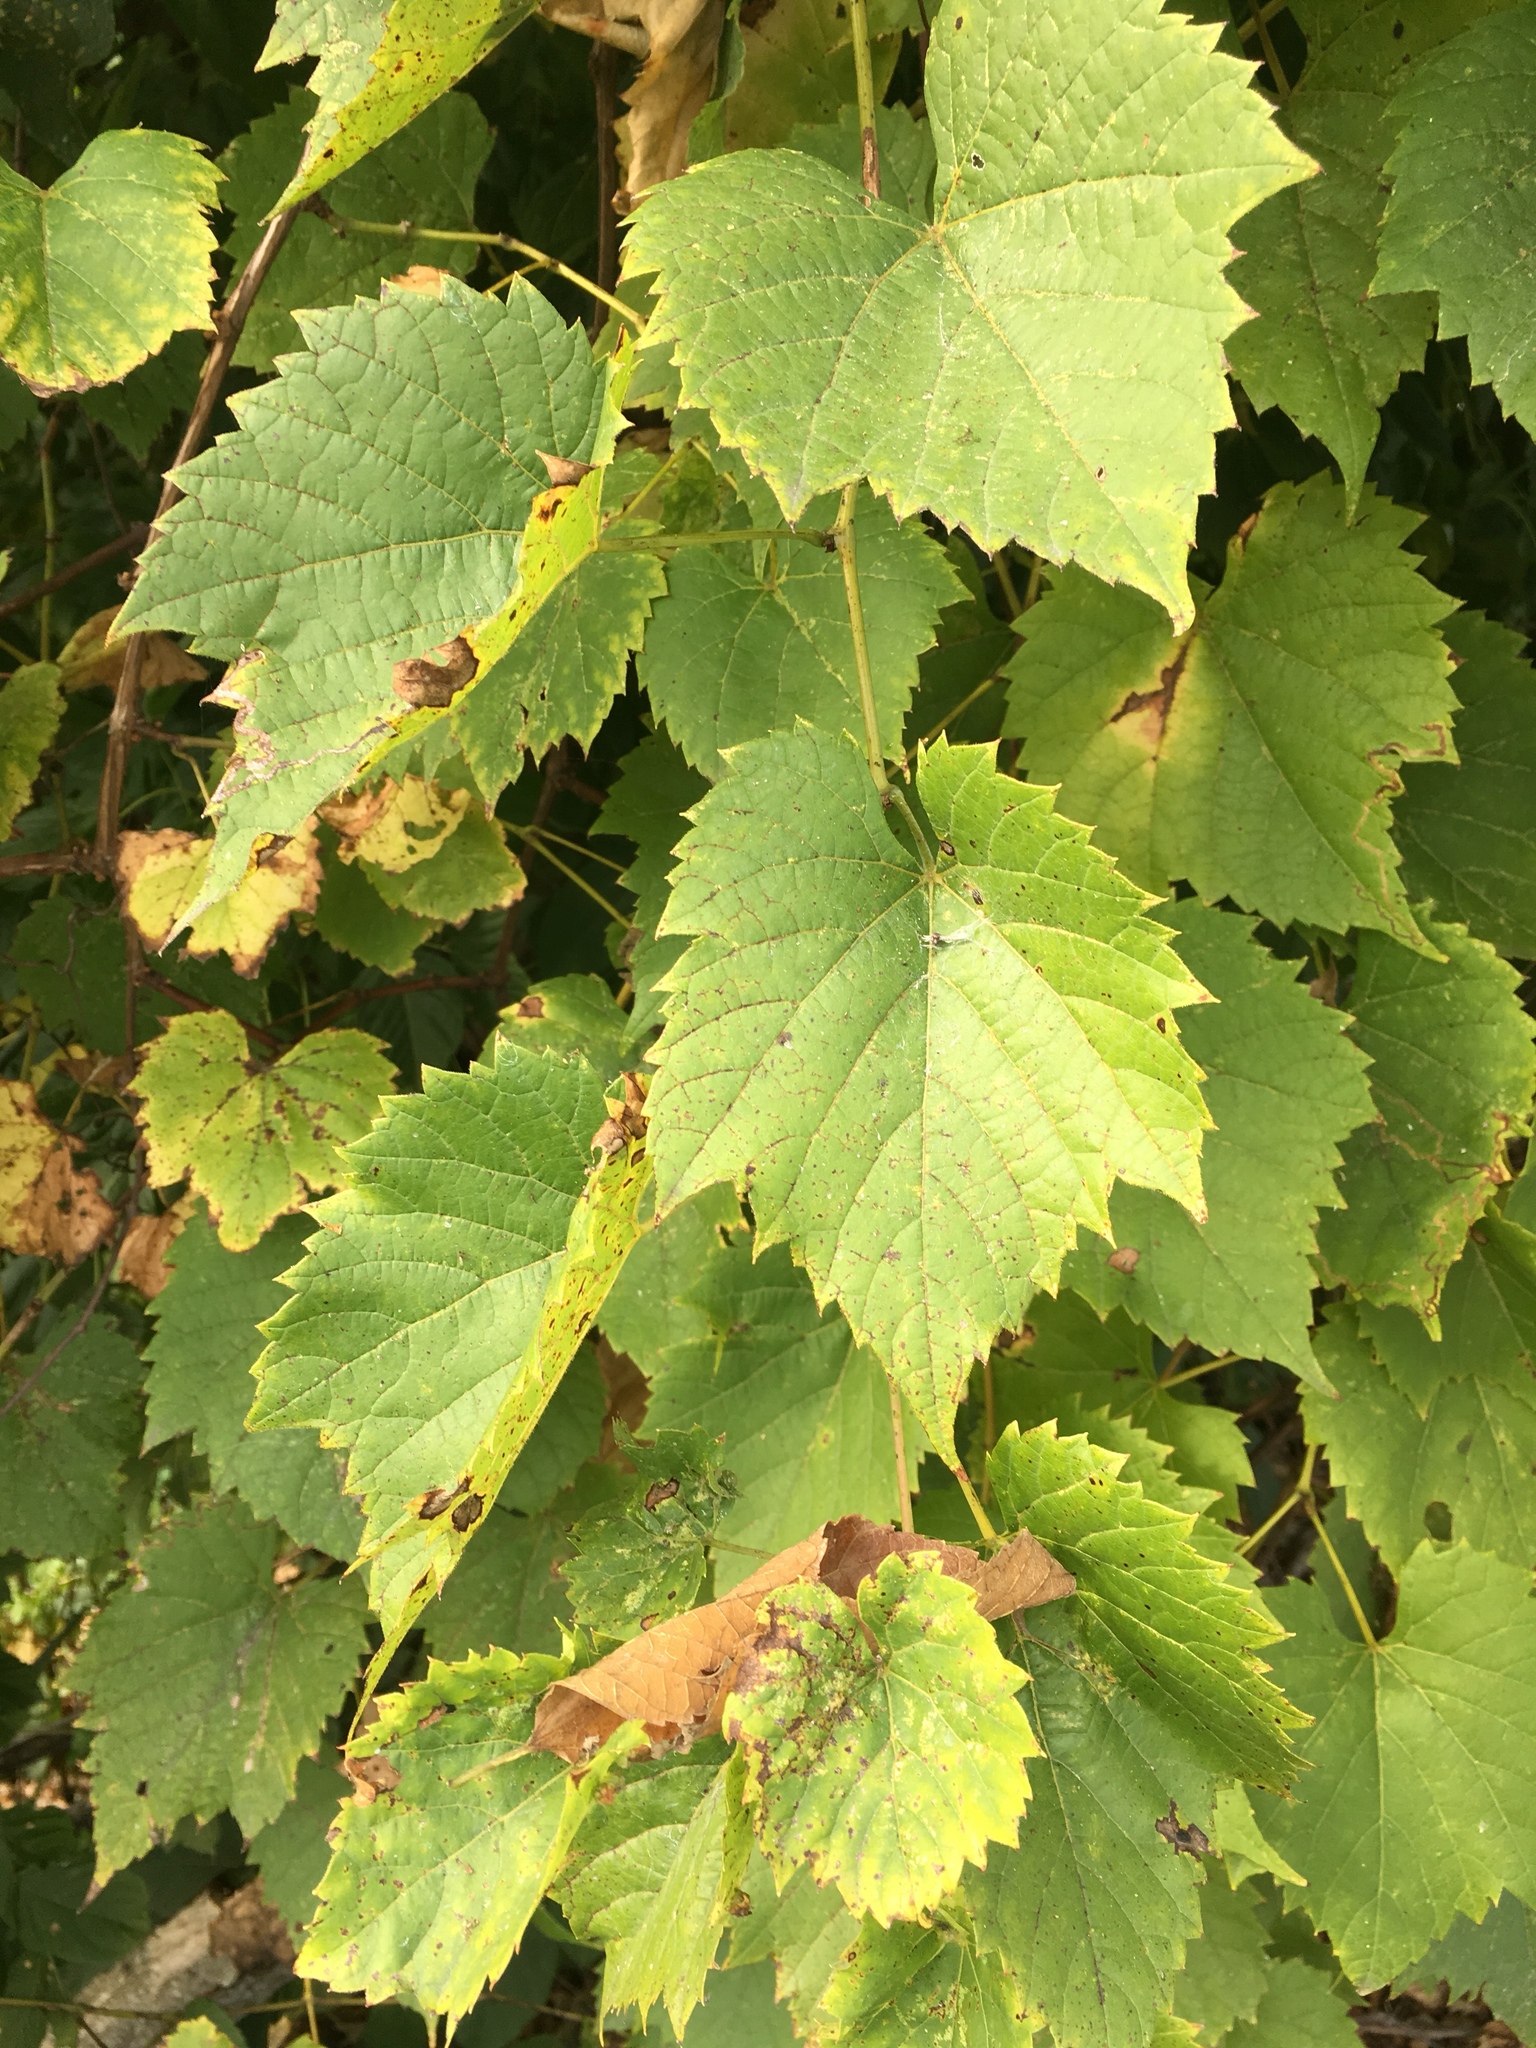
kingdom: Plantae
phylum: Tracheophyta
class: Magnoliopsida
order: Vitales
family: Vitaceae
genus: Vitis
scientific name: Vitis riparia
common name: Frost grape
